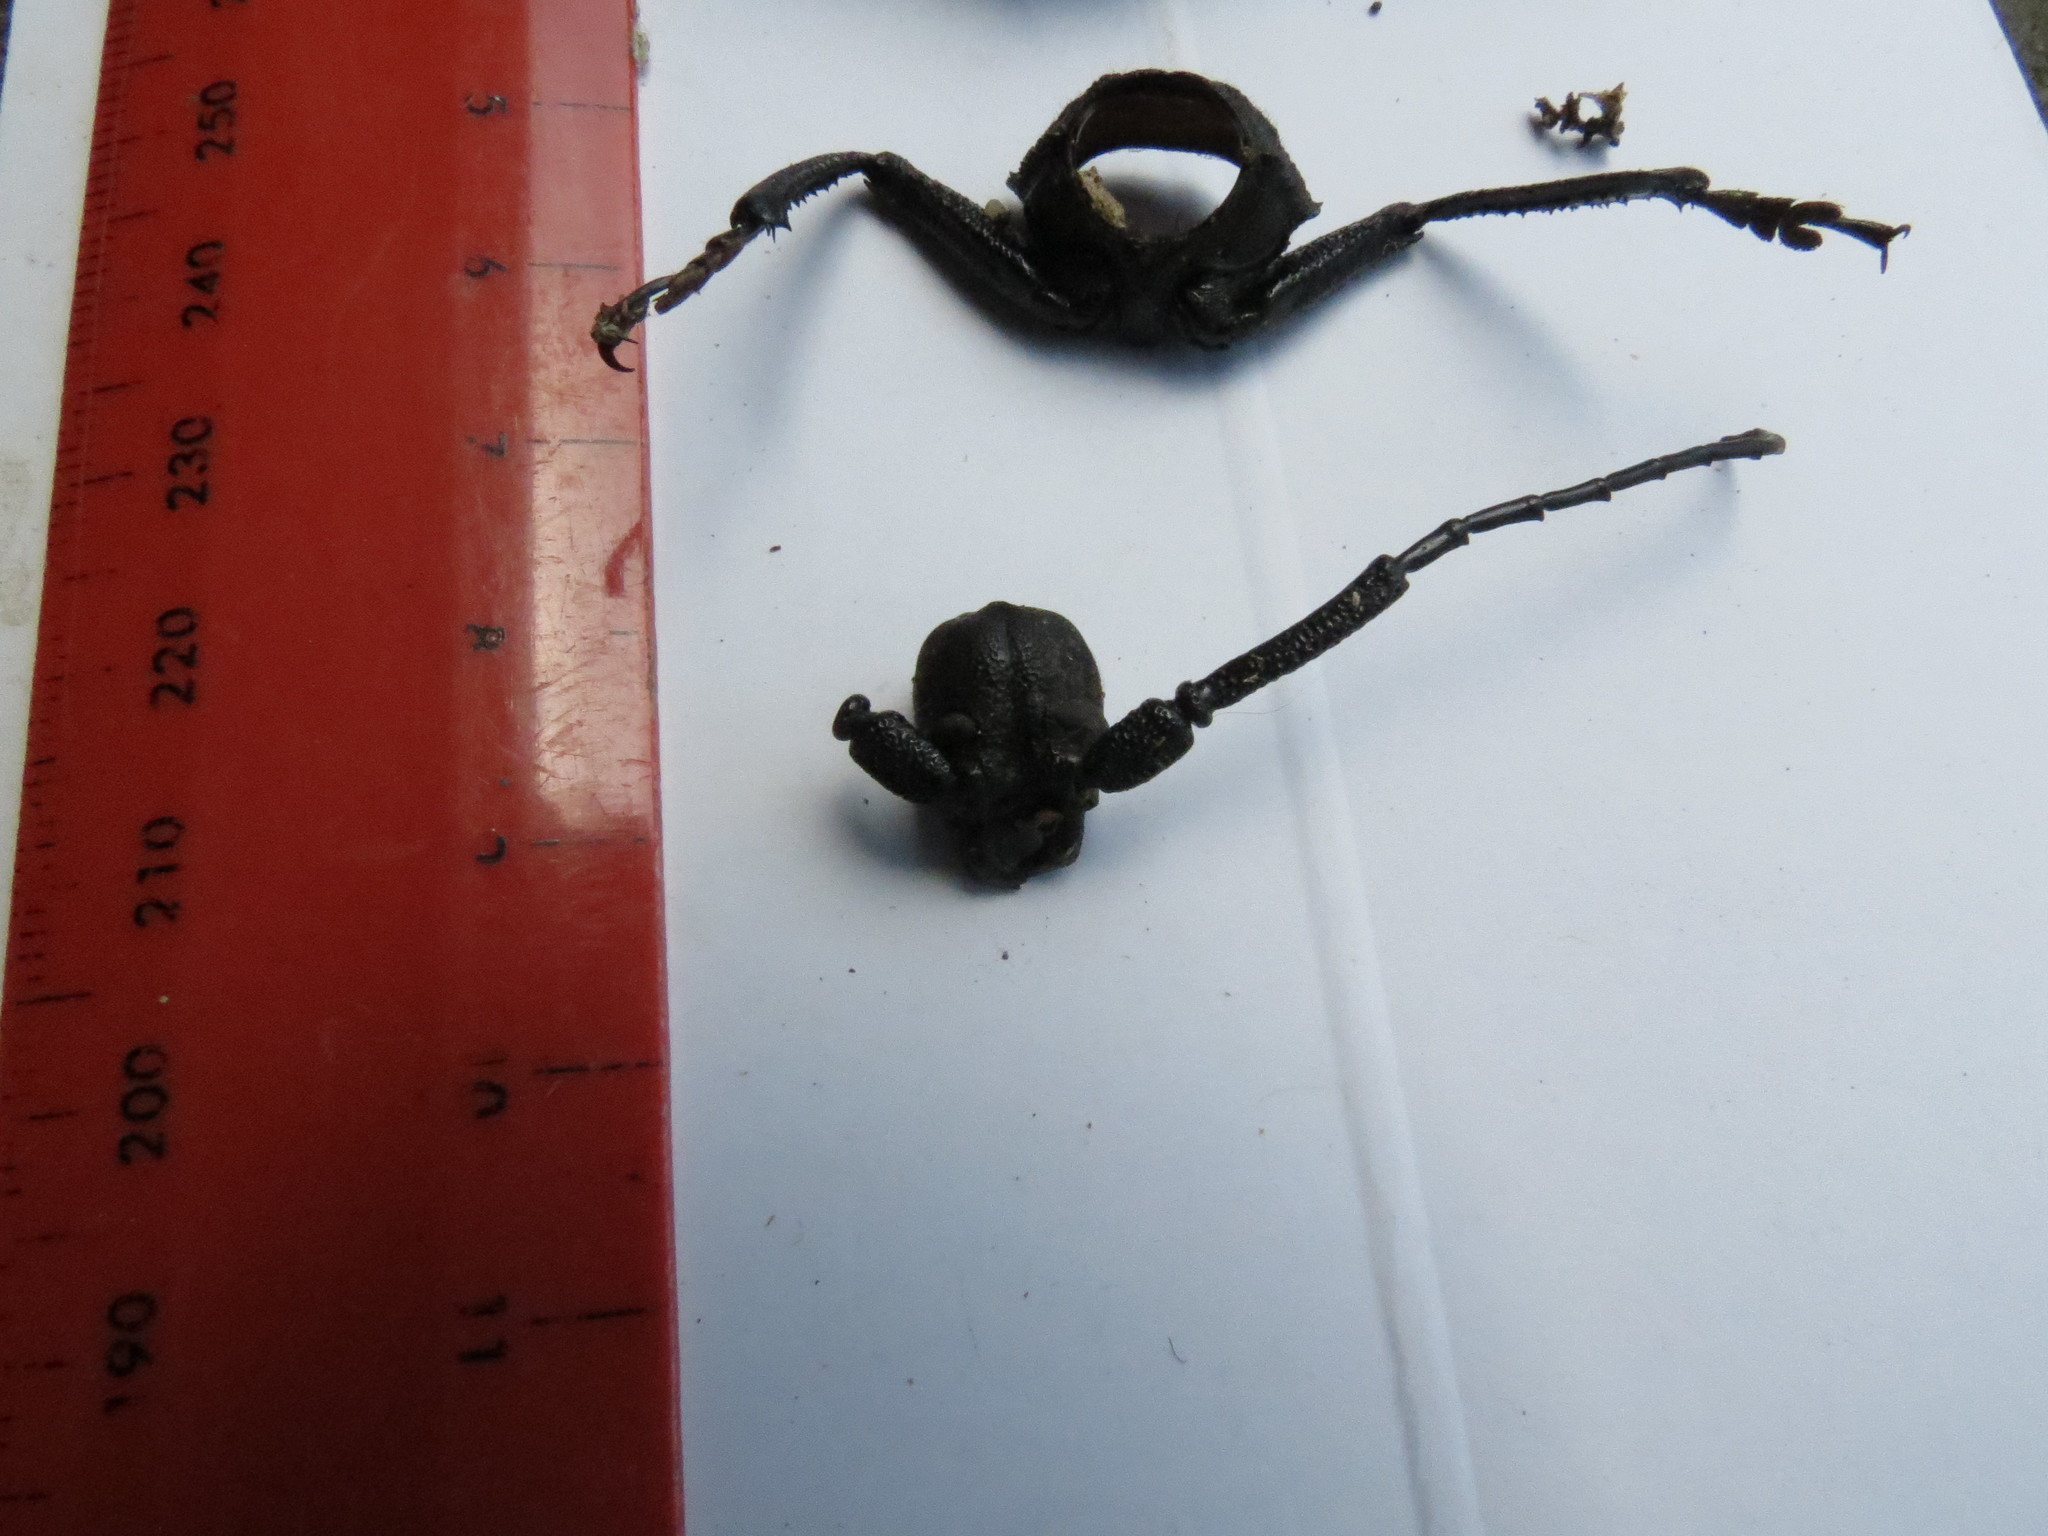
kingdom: Animalia
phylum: Arthropoda
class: Insecta
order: Coleoptera
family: Cerambycidae
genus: Macrotoma
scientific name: Macrotoma palmata
